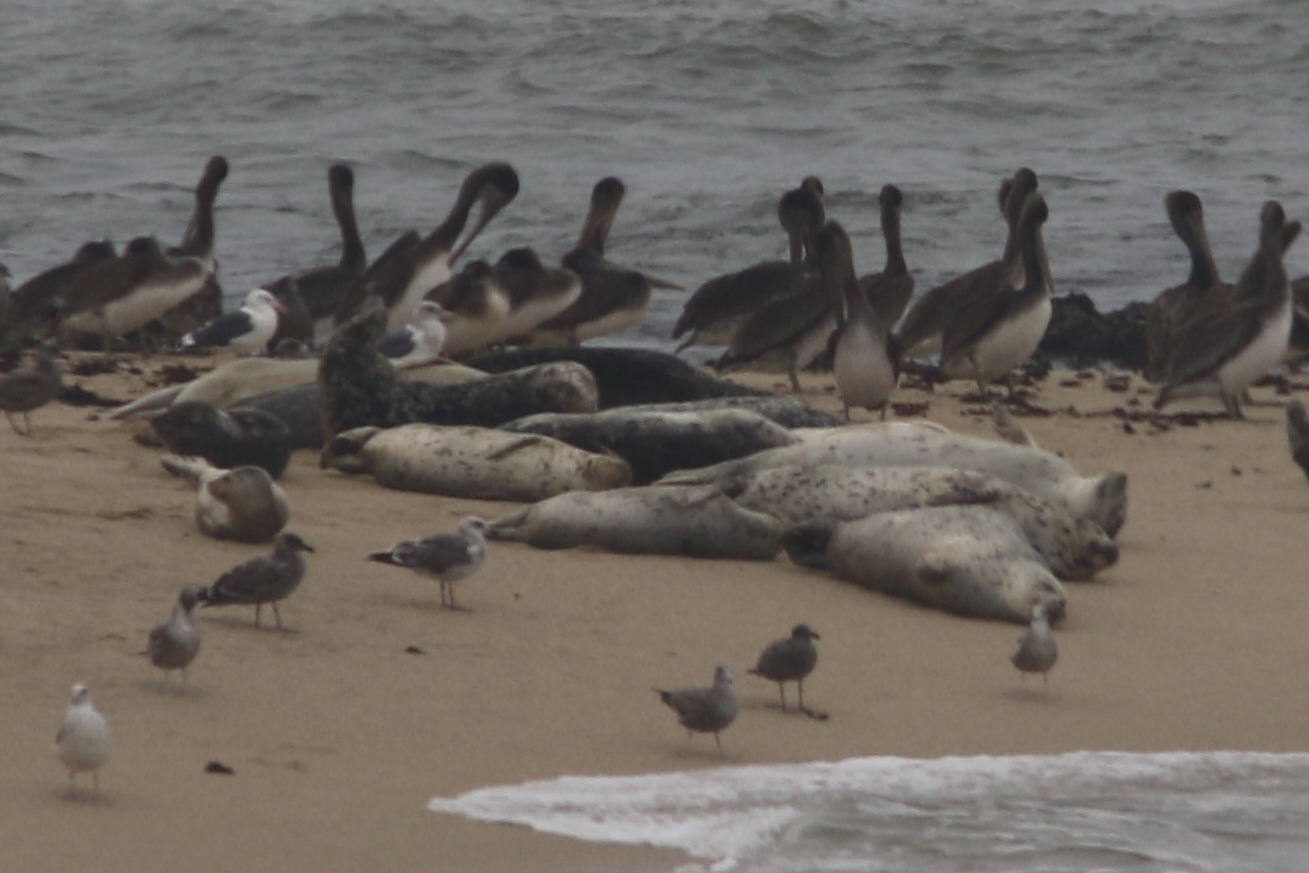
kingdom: Animalia
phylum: Chordata
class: Mammalia
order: Carnivora
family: Phocidae
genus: Phoca
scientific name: Phoca vitulina
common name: Harbor seal
